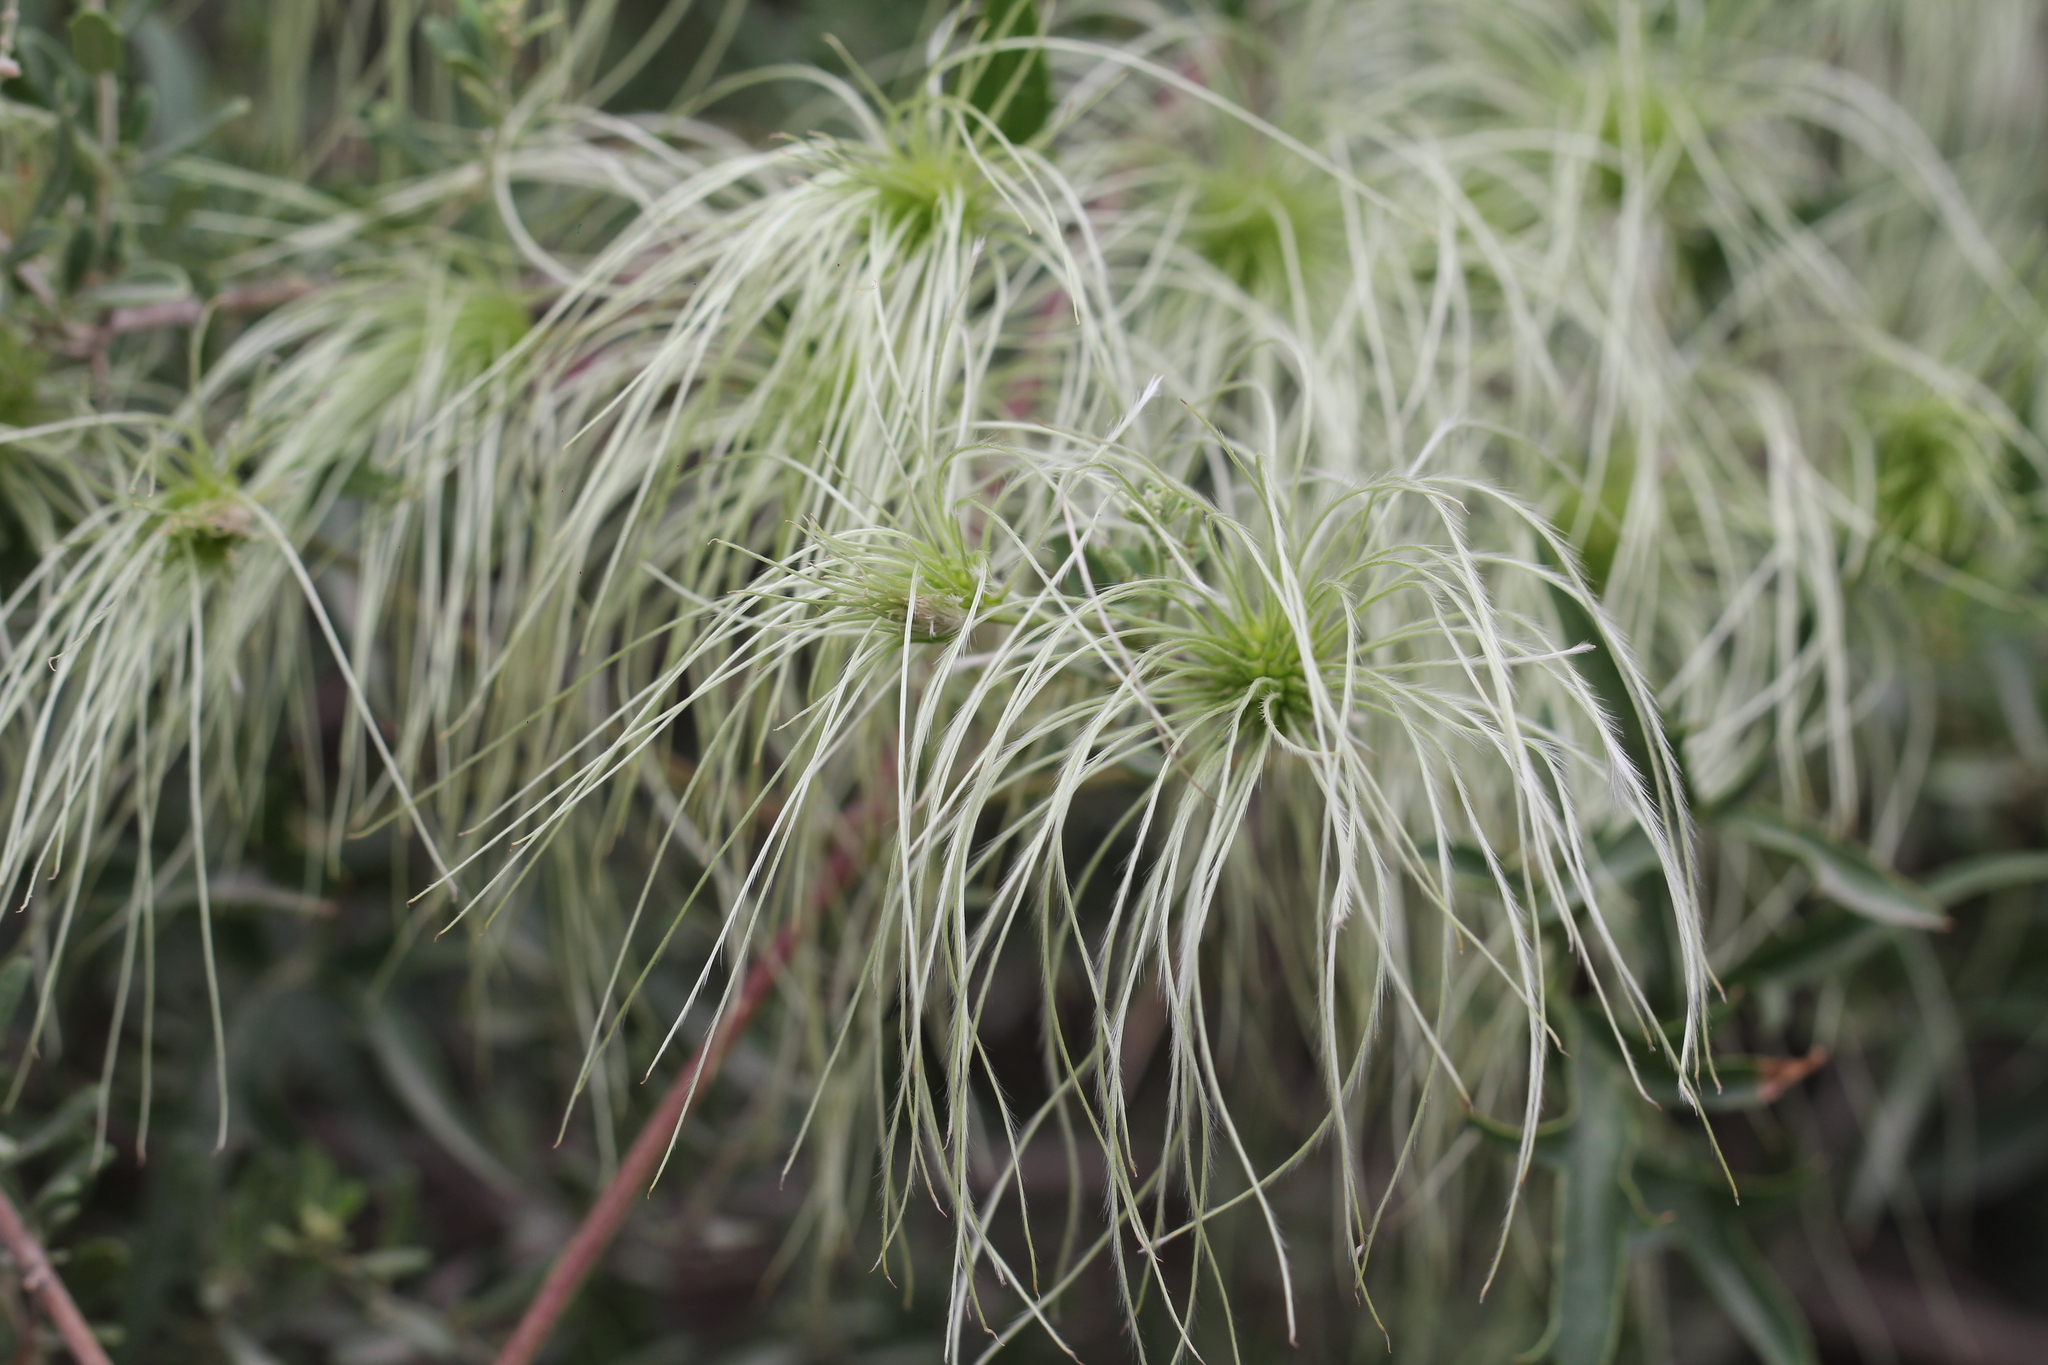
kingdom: Plantae
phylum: Tracheophyta
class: Magnoliopsida
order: Ranunculales
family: Ranunculaceae
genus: Clematis
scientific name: Clematis montevidensis
